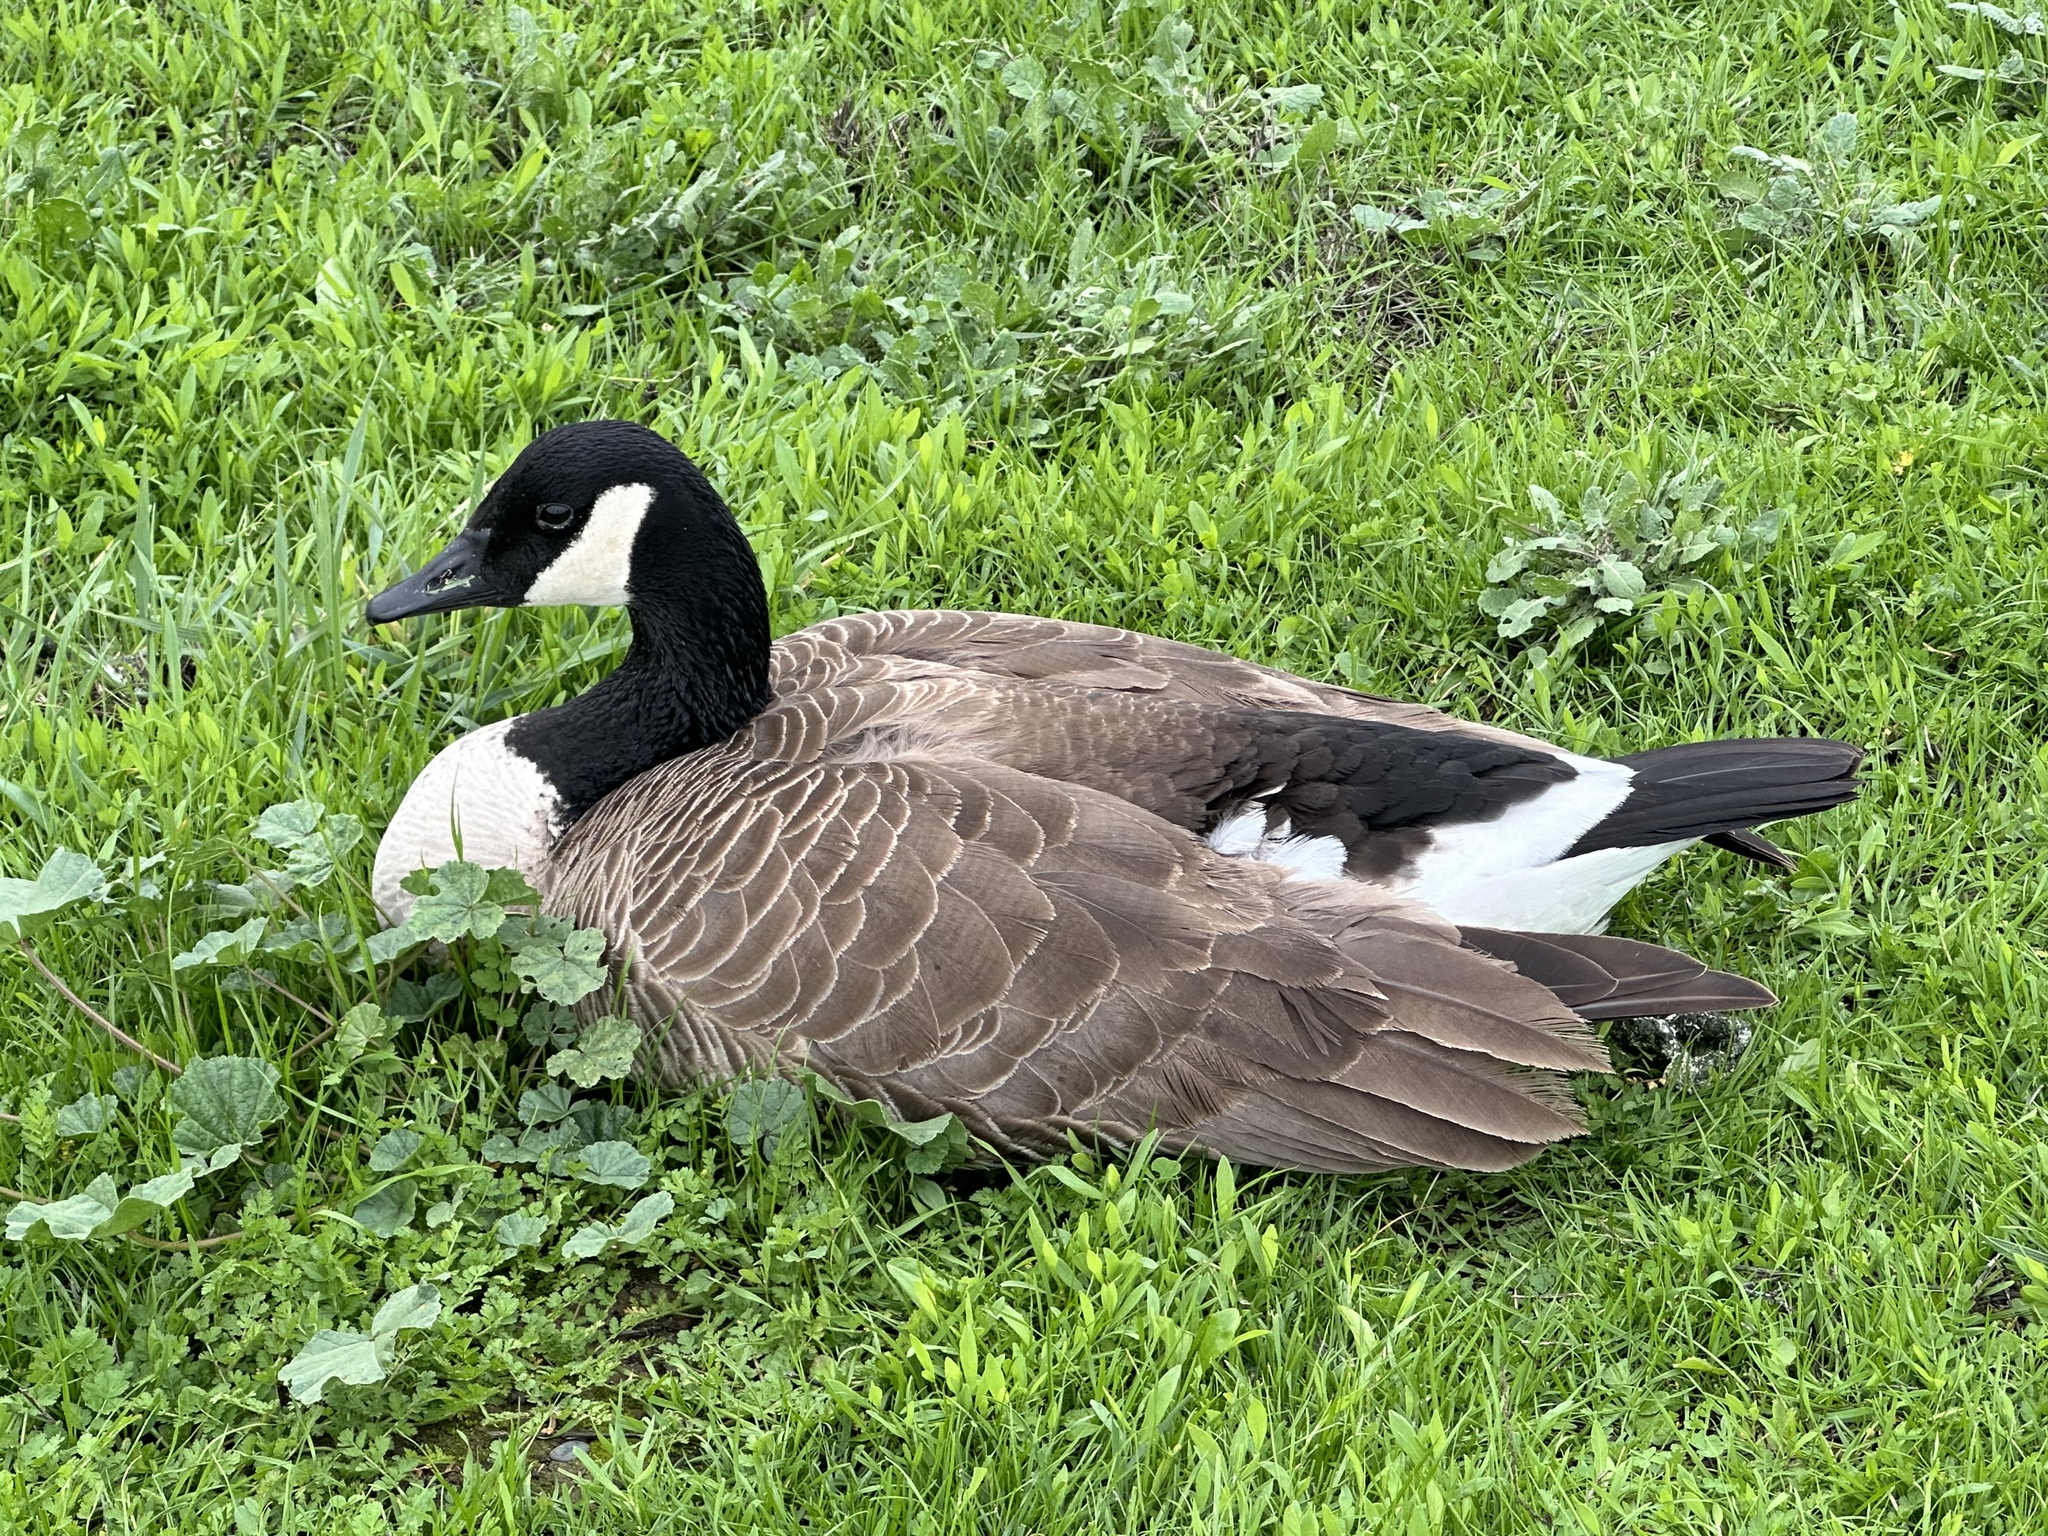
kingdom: Animalia
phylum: Chordata
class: Aves
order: Anseriformes
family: Anatidae
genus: Branta
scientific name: Branta canadensis
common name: Canada goose
